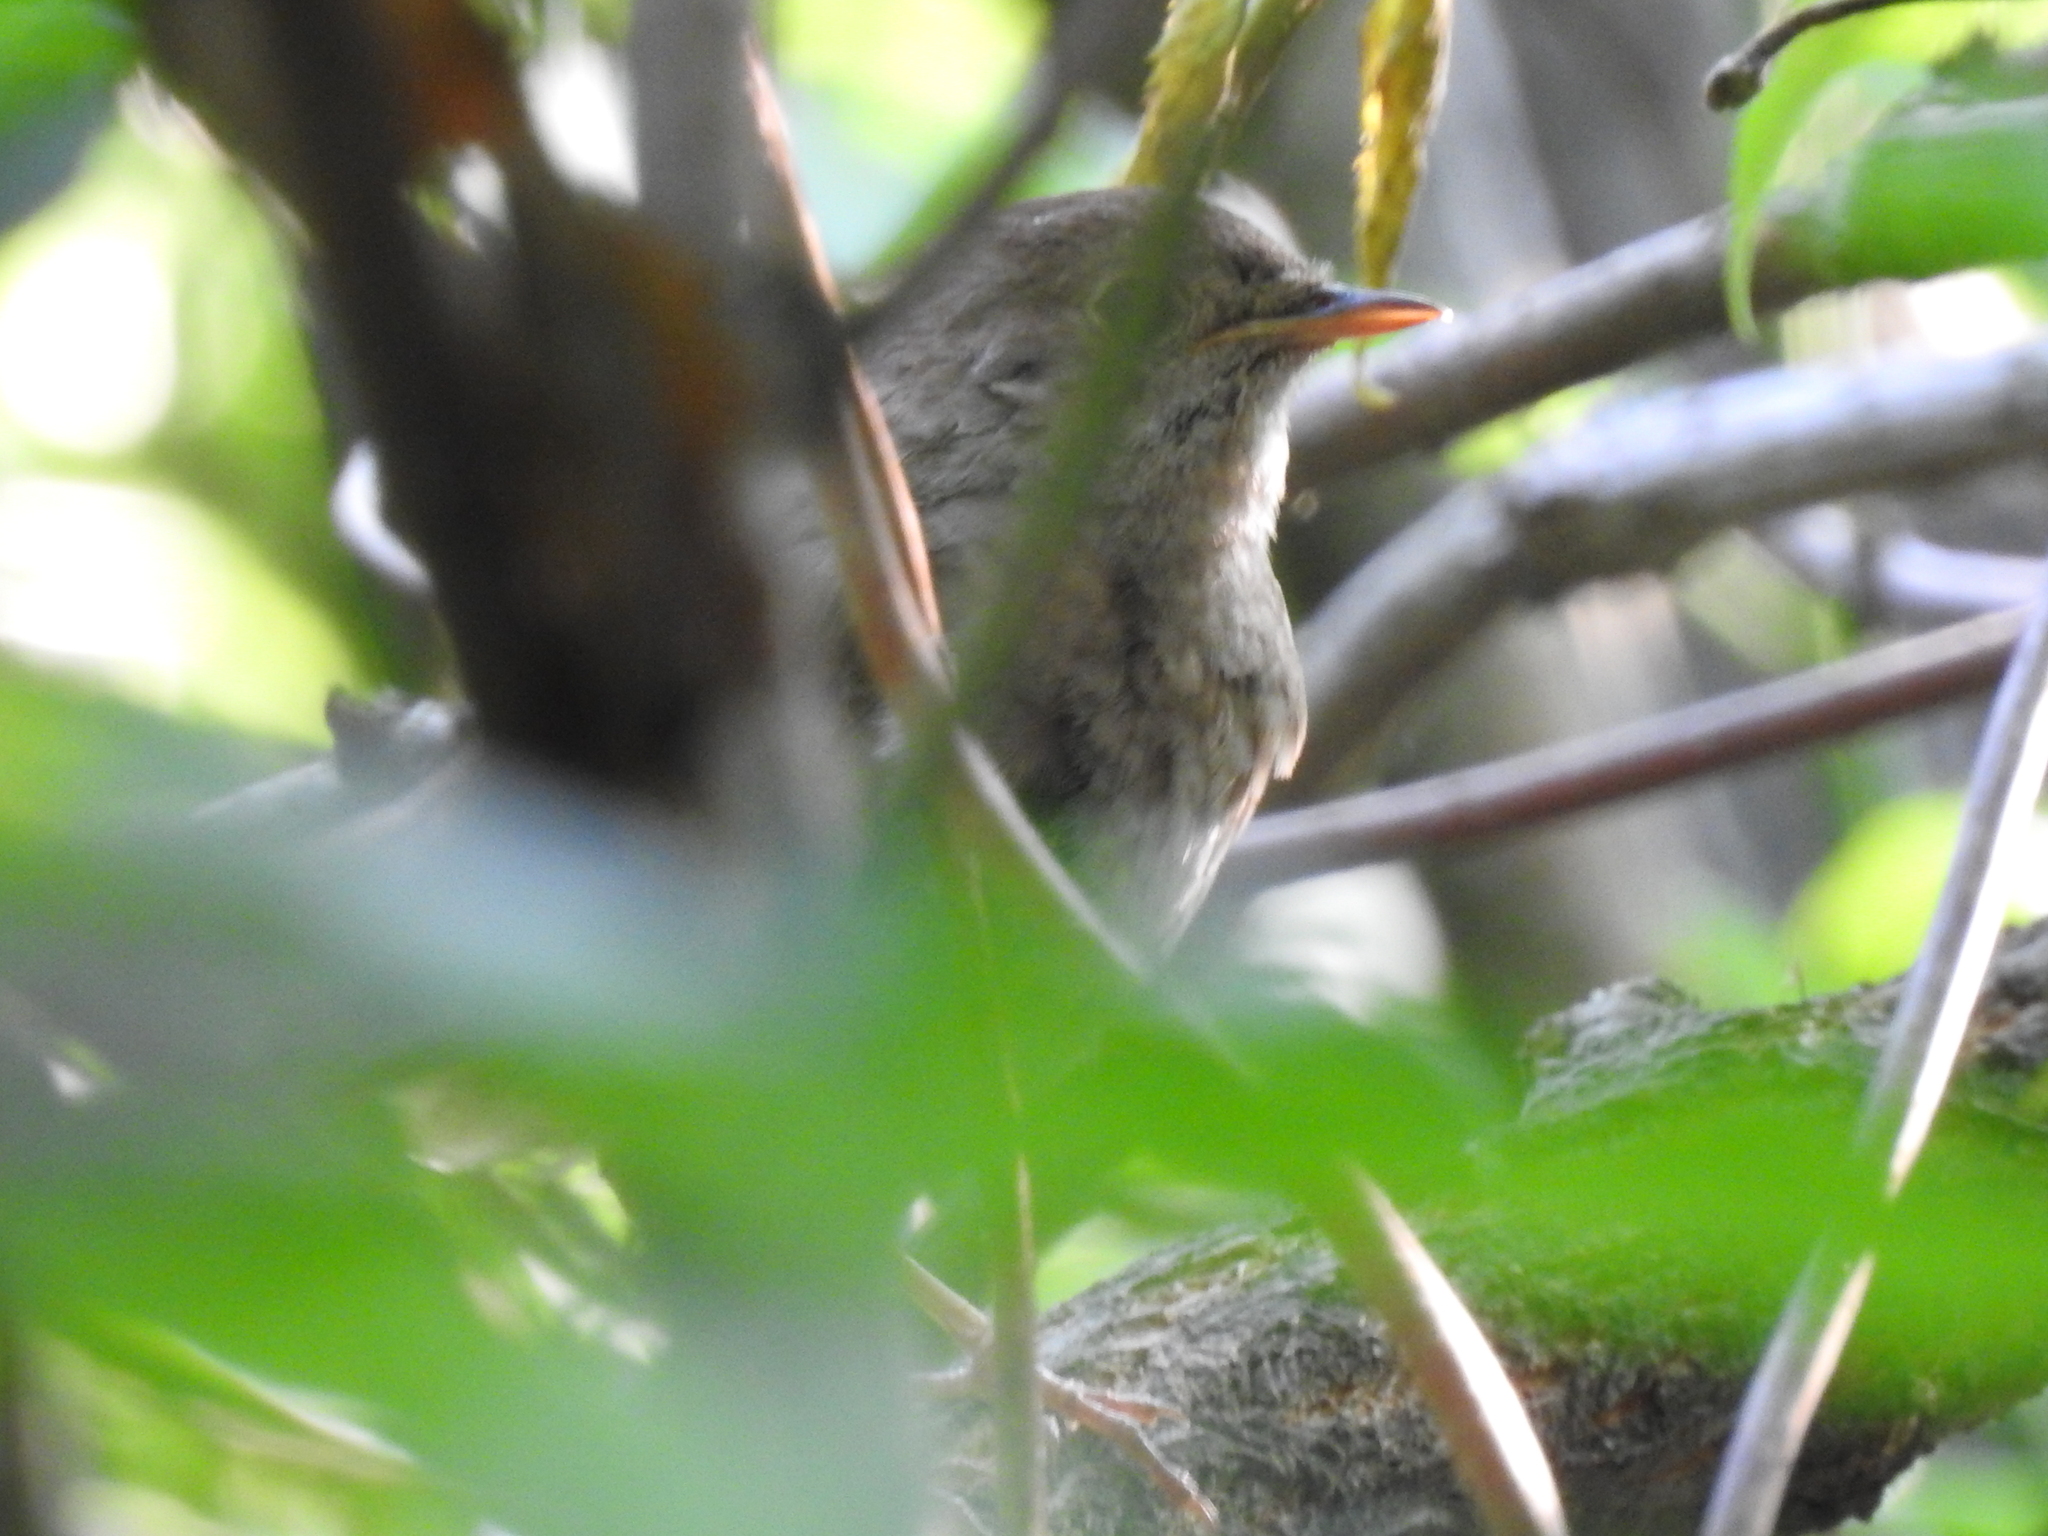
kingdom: Animalia
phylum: Chordata
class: Aves
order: Passeriformes
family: Muscicapidae
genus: Luscinia
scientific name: Luscinia luscinia
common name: Thrush nightingale
